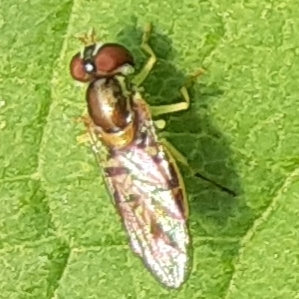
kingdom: Animalia
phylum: Arthropoda
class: Insecta
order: Diptera
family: Syrphidae
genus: Toxomerus
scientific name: Toxomerus marginatus
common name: Syrphid fly
